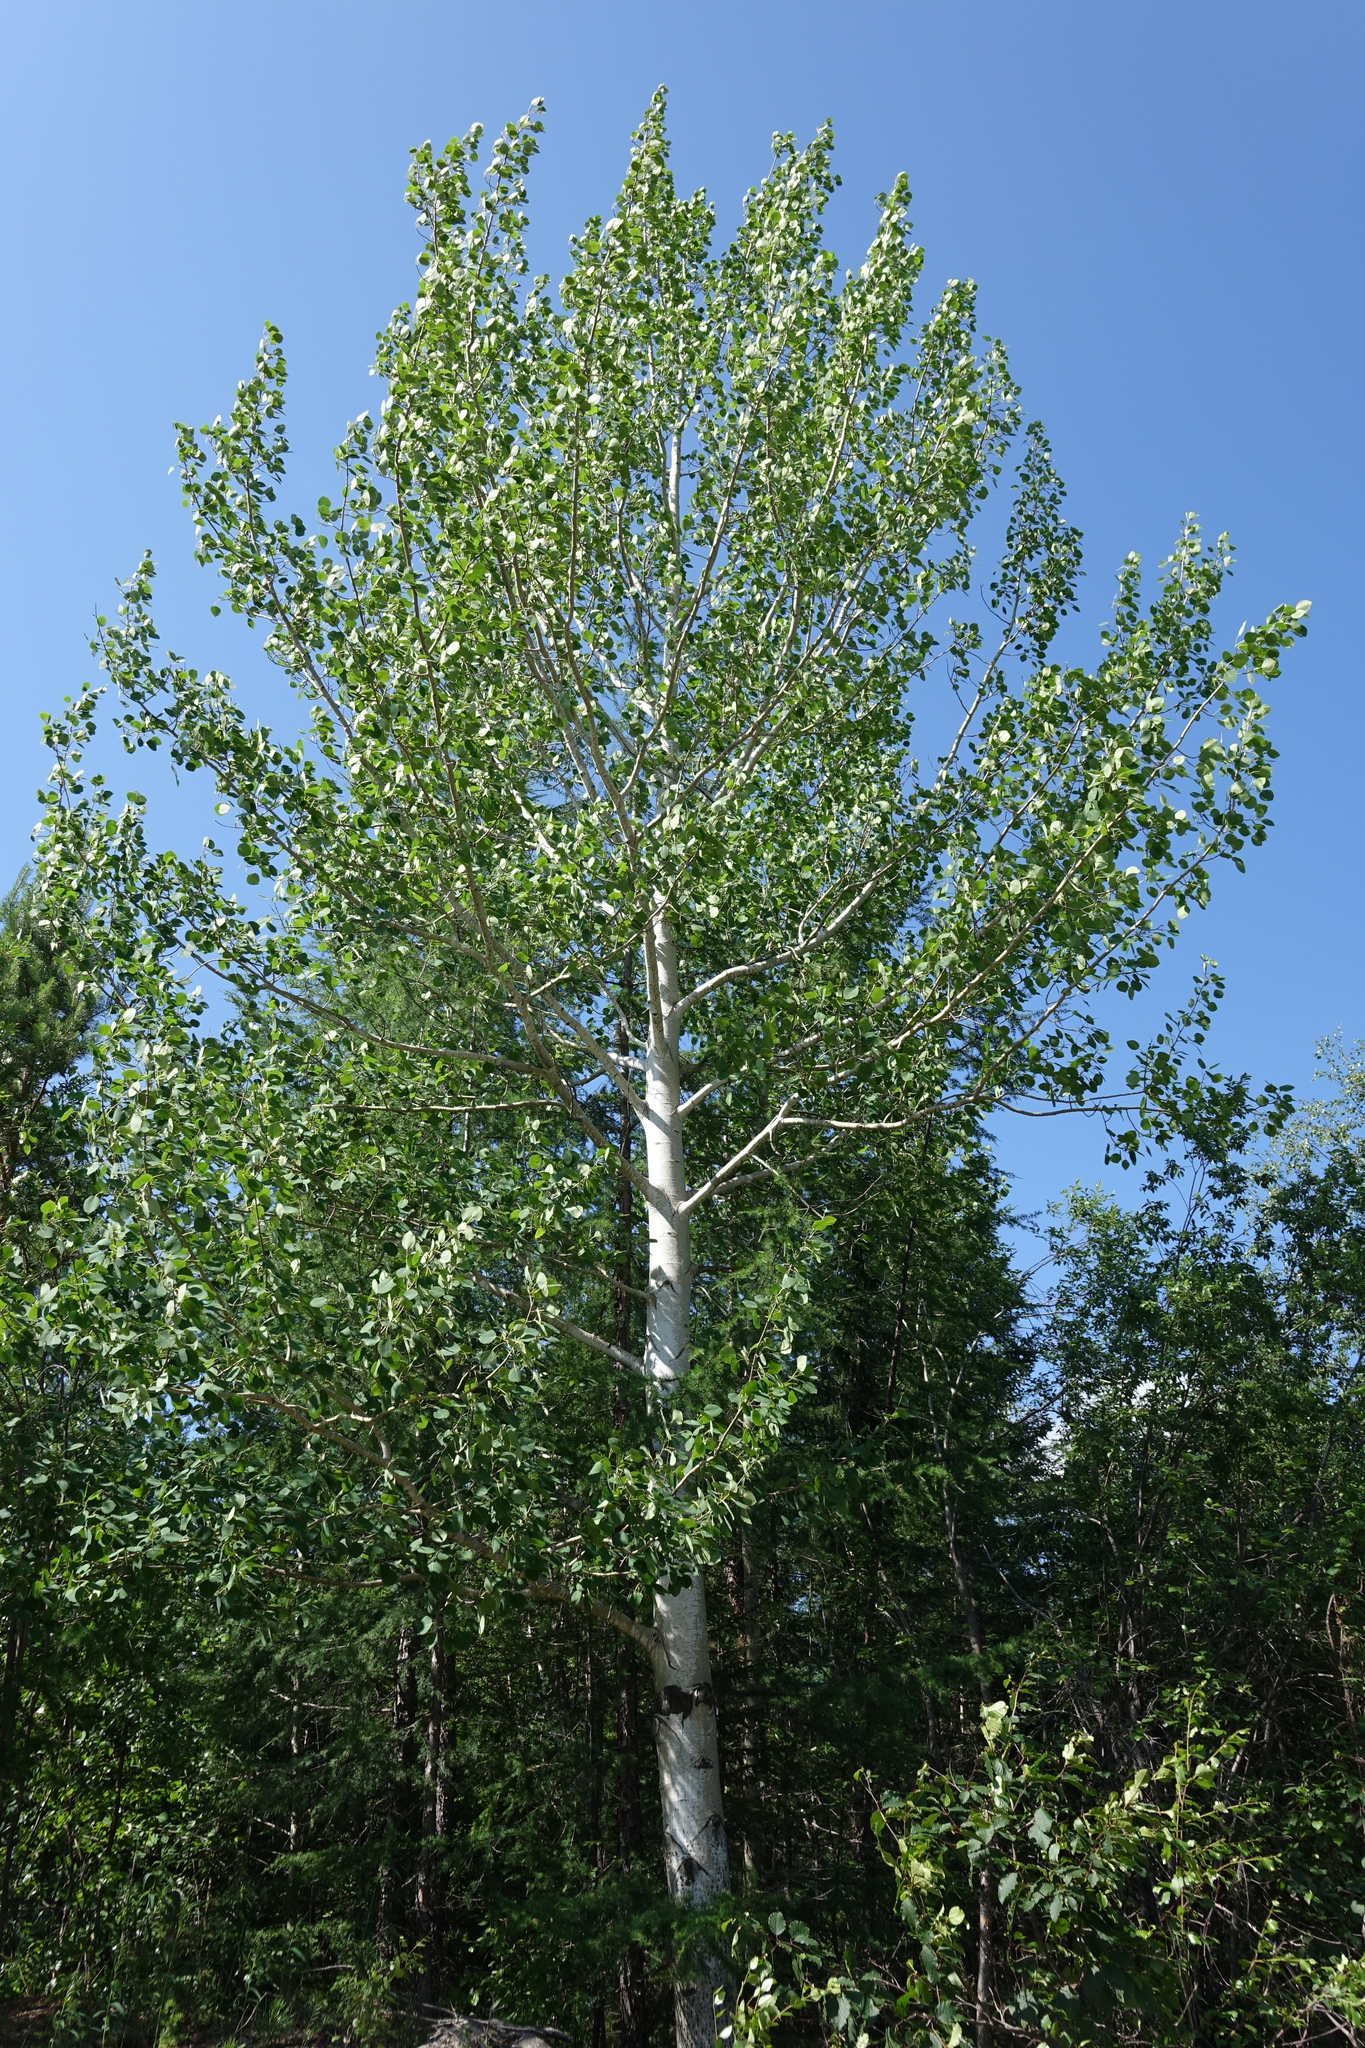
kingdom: Plantae
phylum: Tracheophyta
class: Magnoliopsida
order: Malpighiales
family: Salicaceae
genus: Populus
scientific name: Populus tremula
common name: European aspen
